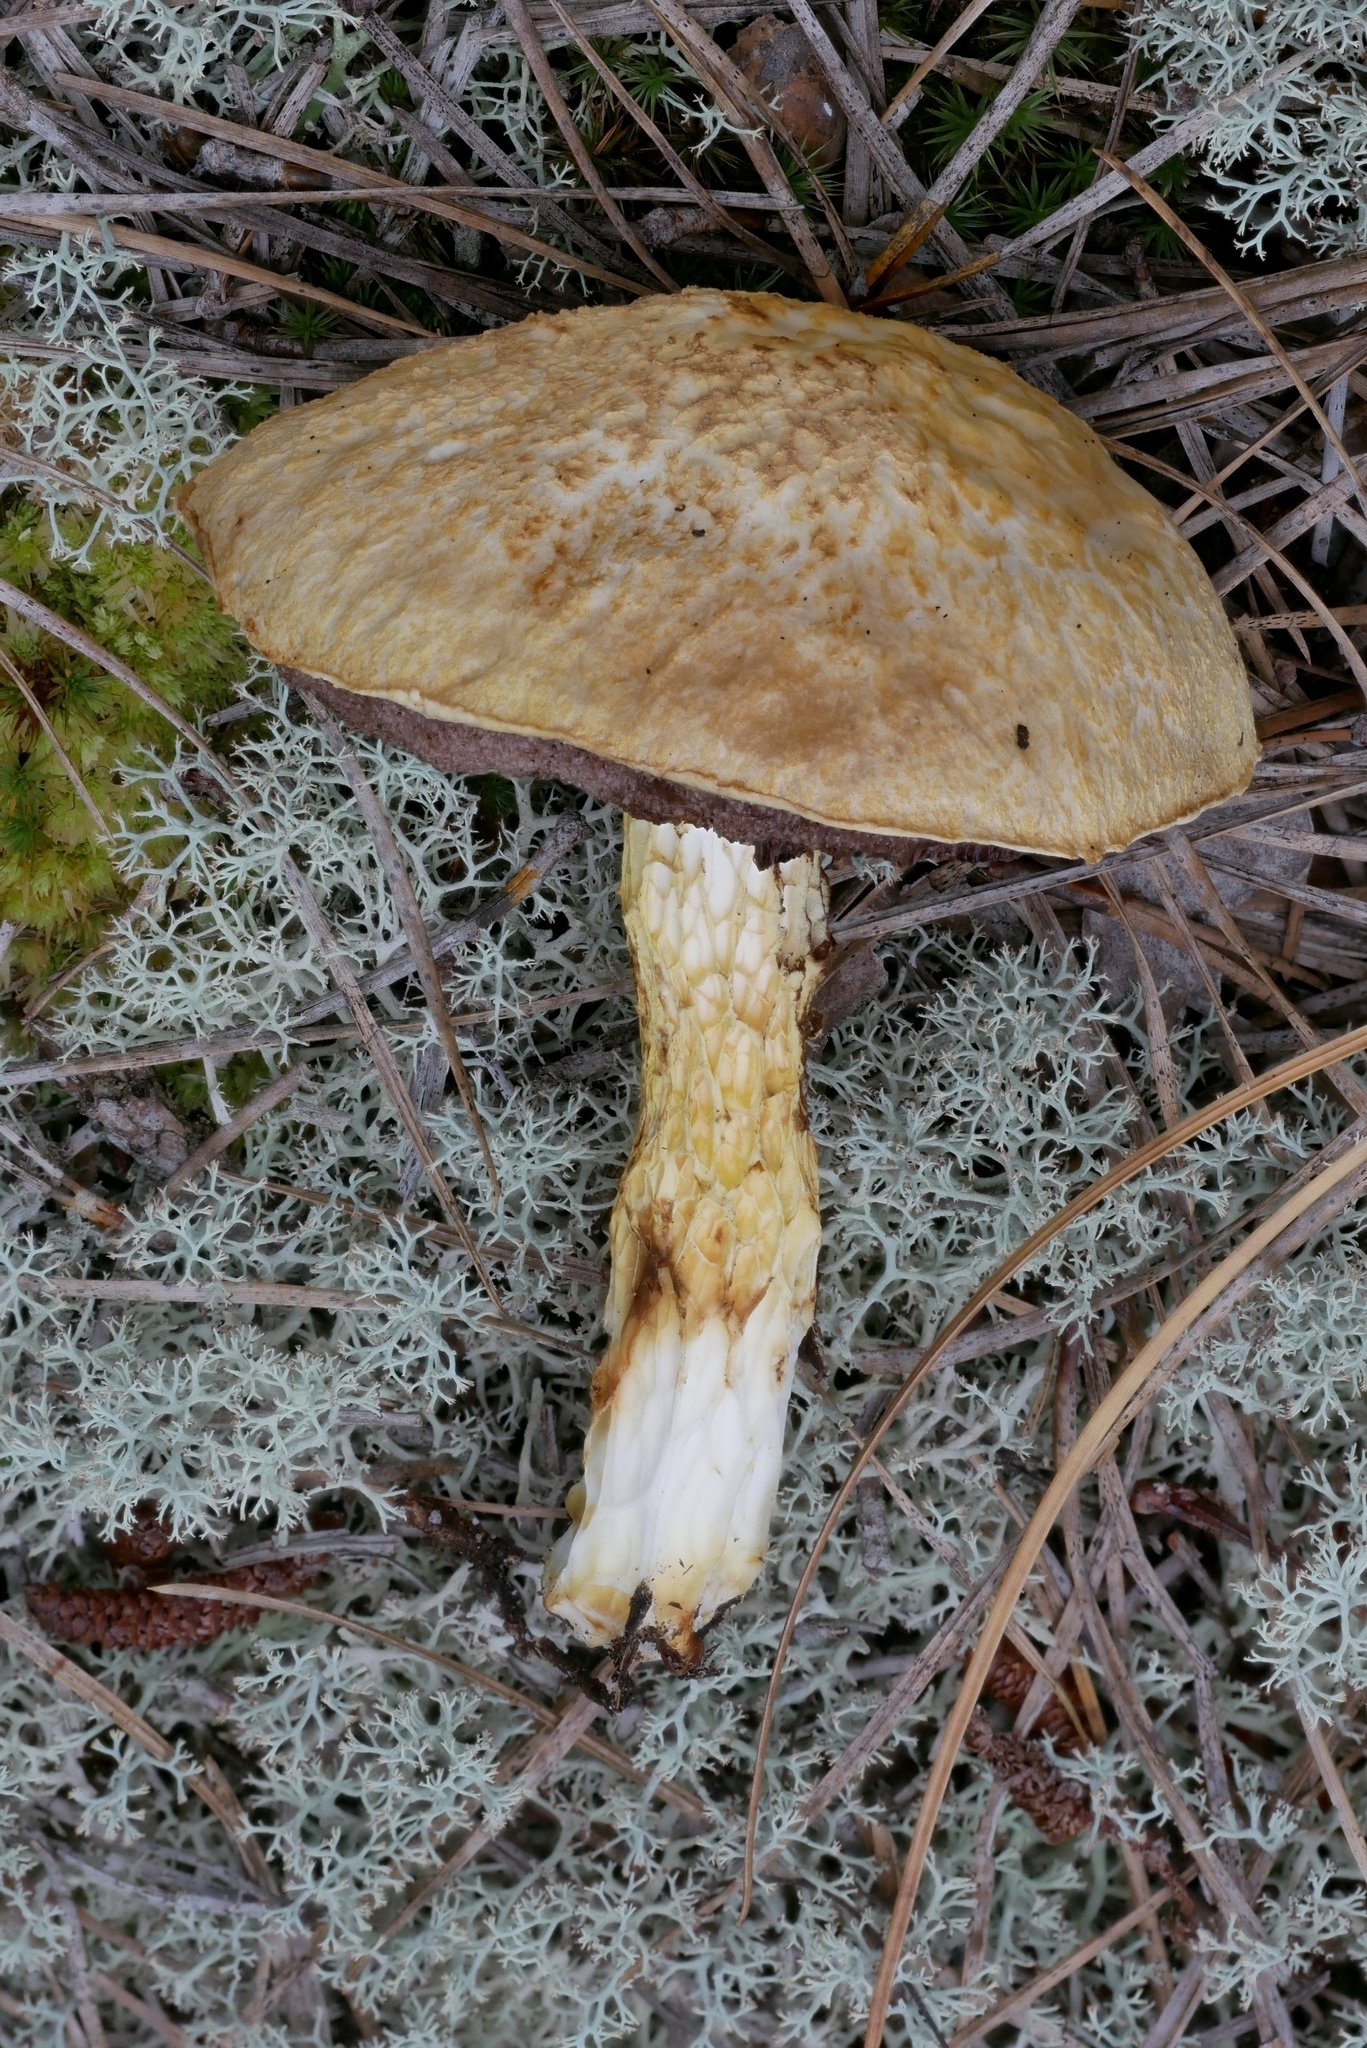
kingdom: Fungi
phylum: Basidiomycota
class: Agaricomycetes
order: Boletales
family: Boletaceae
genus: Austroboletus
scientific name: Austroboletus subflavidus
